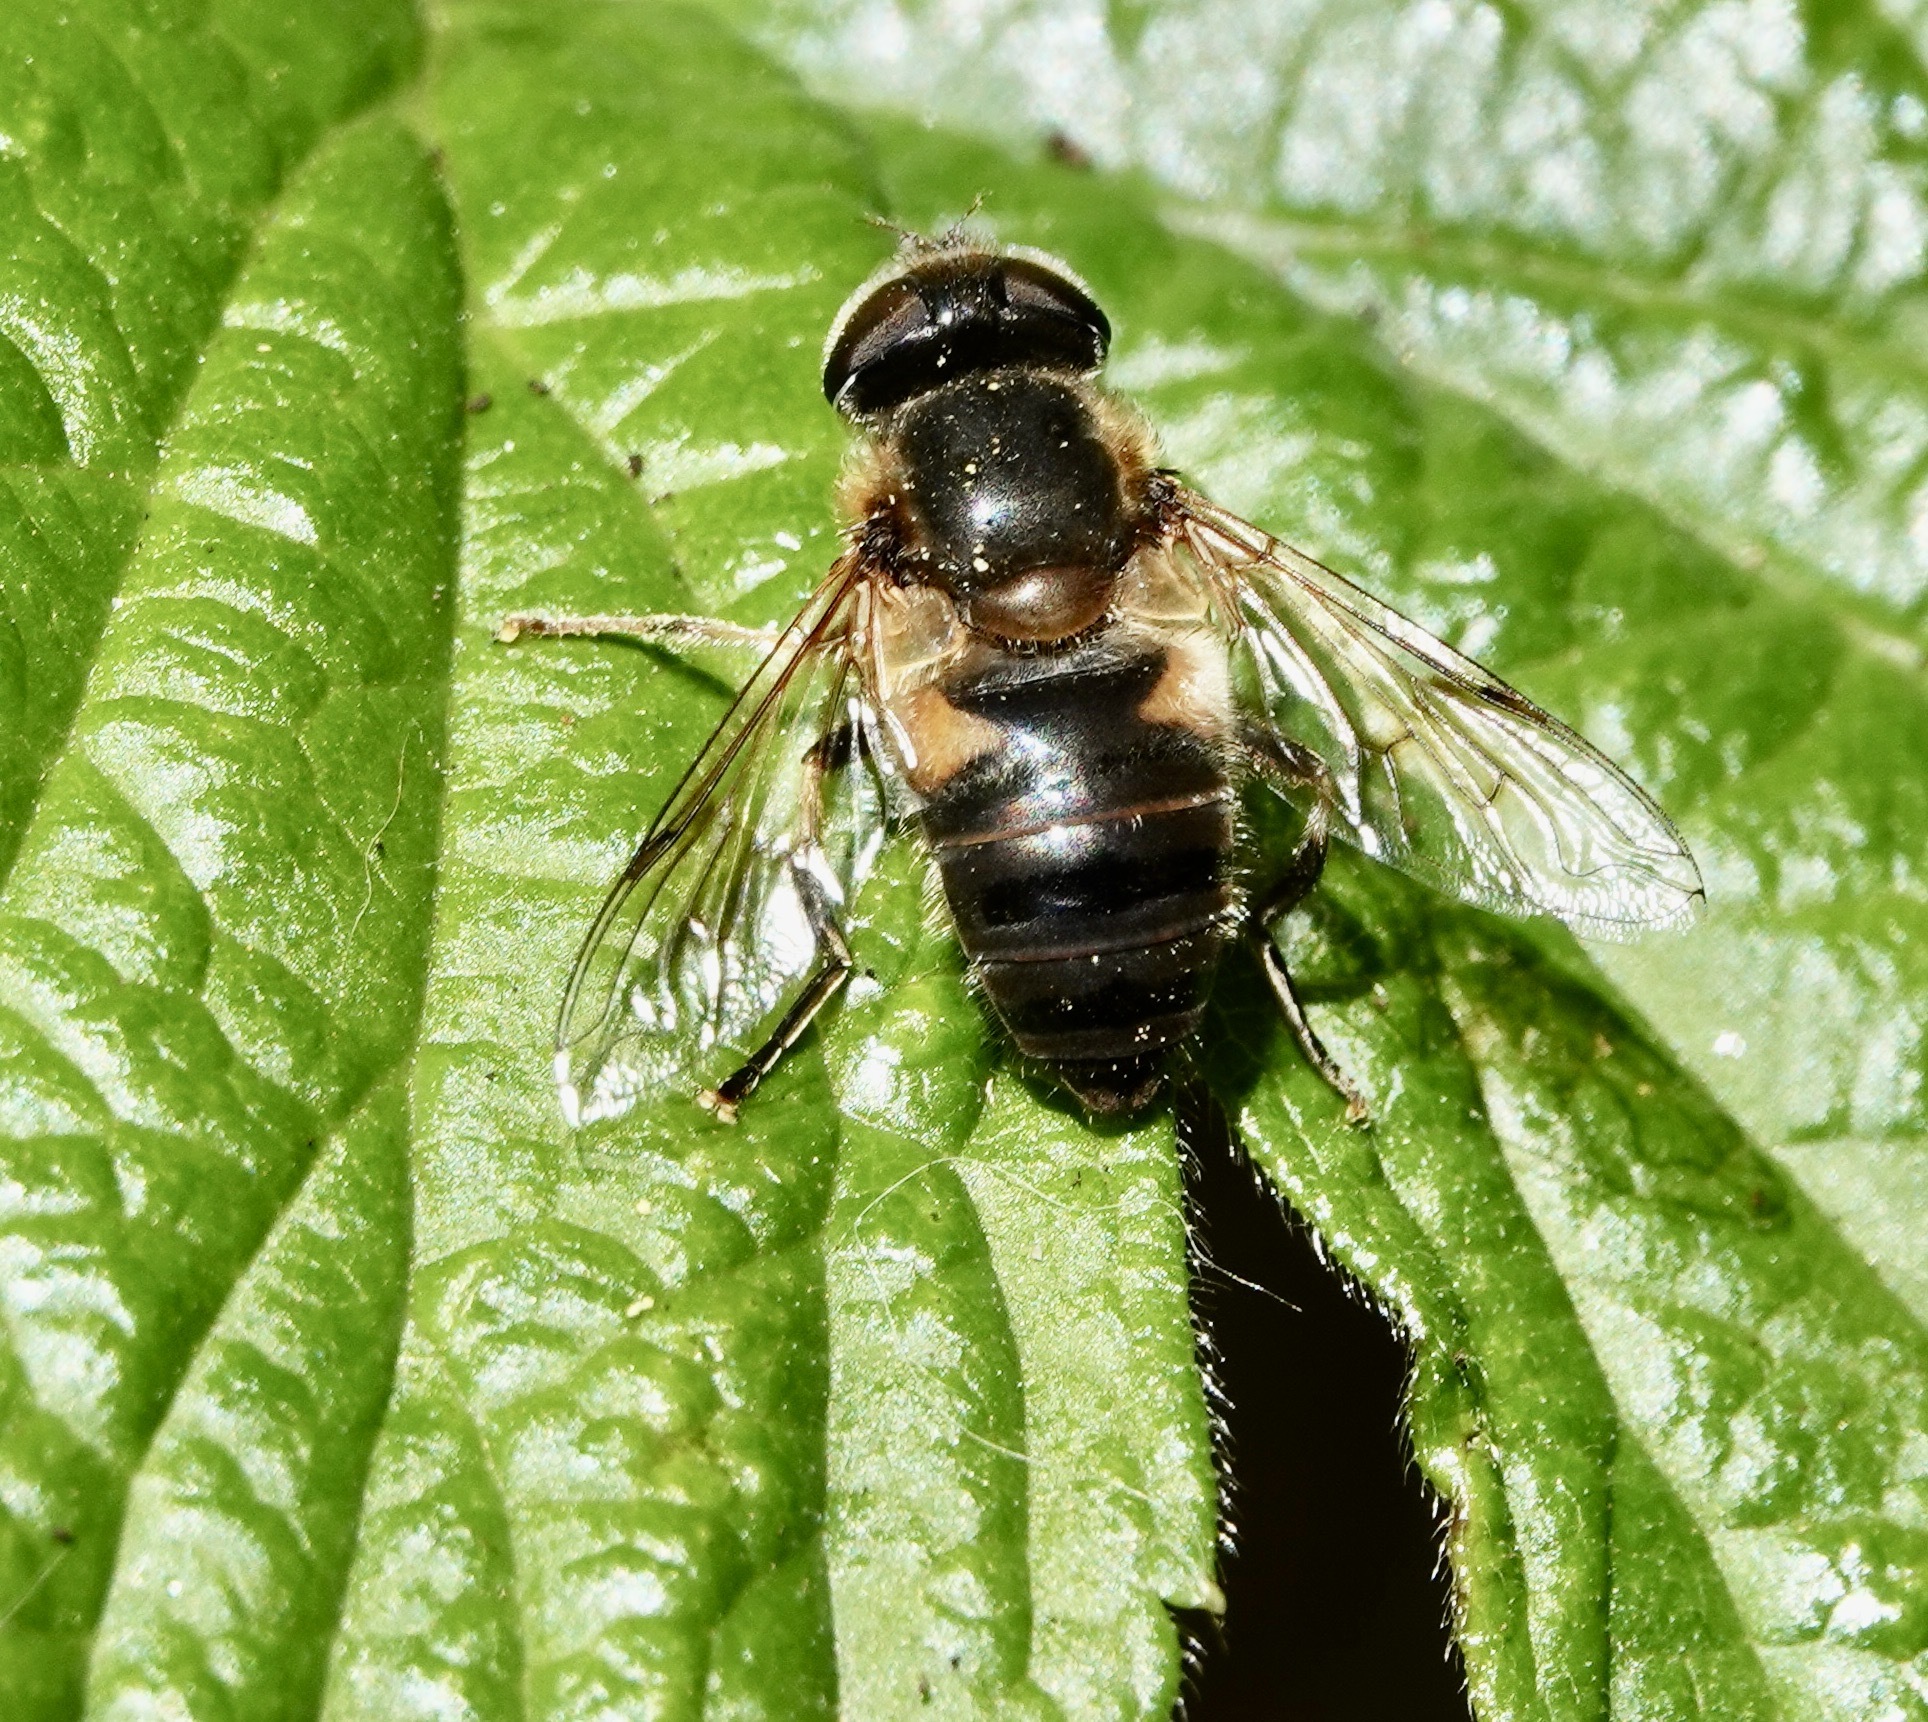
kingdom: Animalia
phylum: Arthropoda
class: Insecta
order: Diptera
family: Syrphidae
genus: Eristalis
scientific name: Eristalis pertinax
